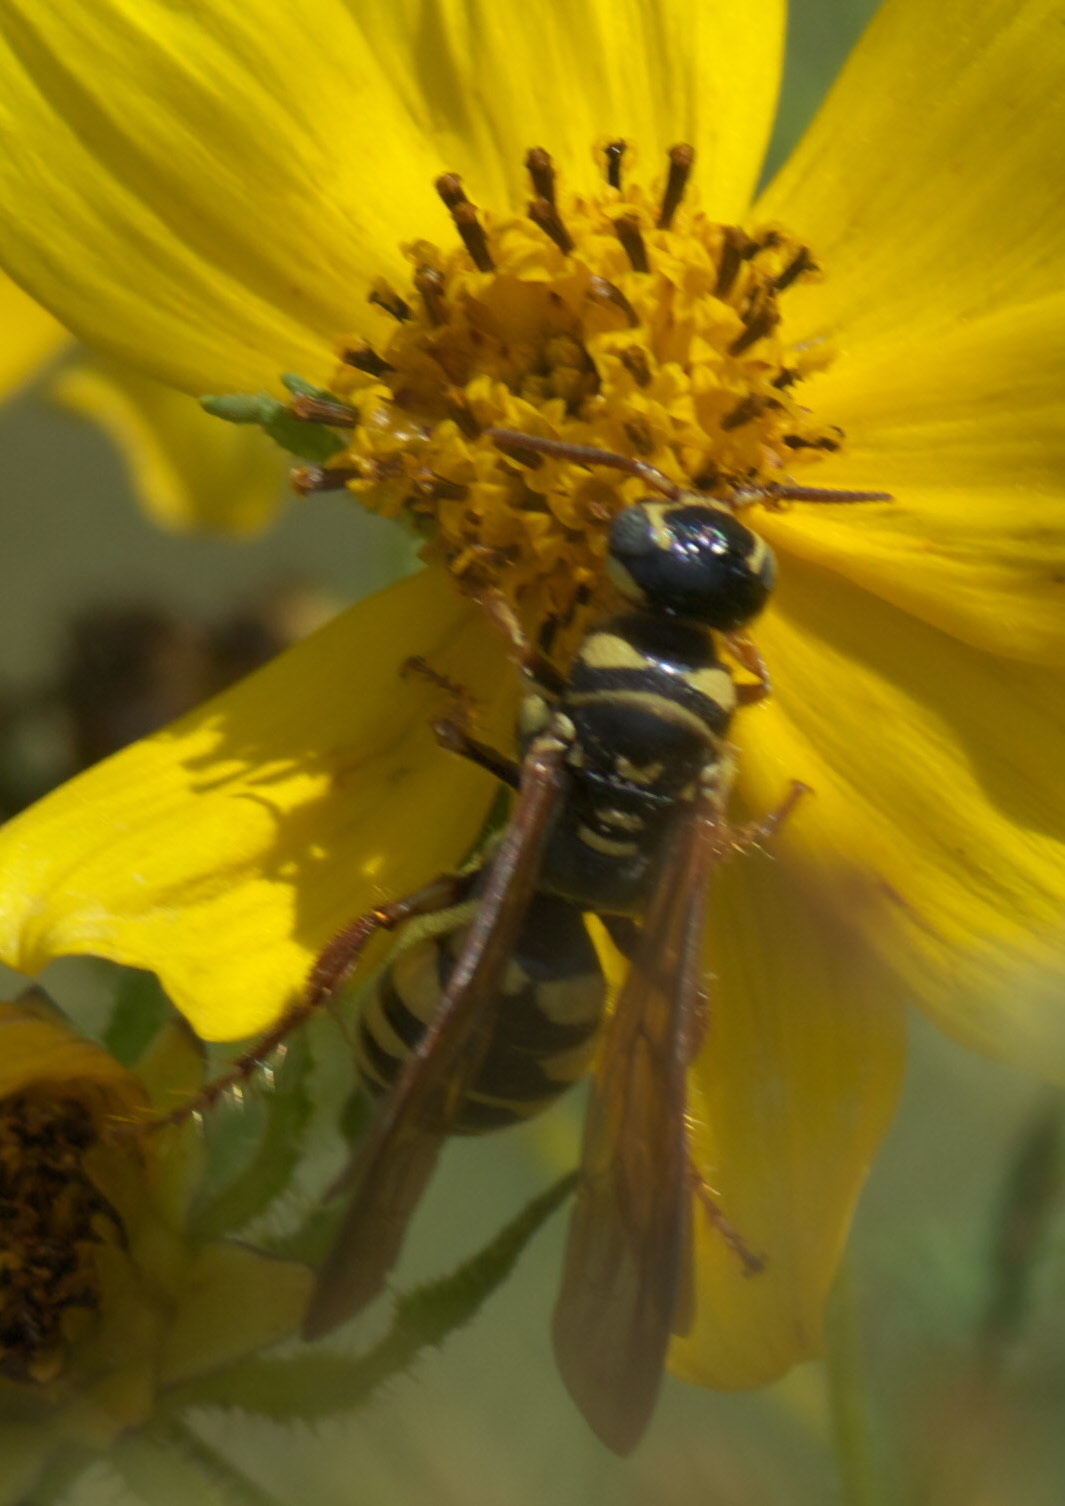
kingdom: Animalia
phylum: Arthropoda
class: Insecta
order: Hymenoptera
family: Tiphiidae
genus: Myzinum
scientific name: Myzinum quinquecinctum
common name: Five-banded thynnid wasp
